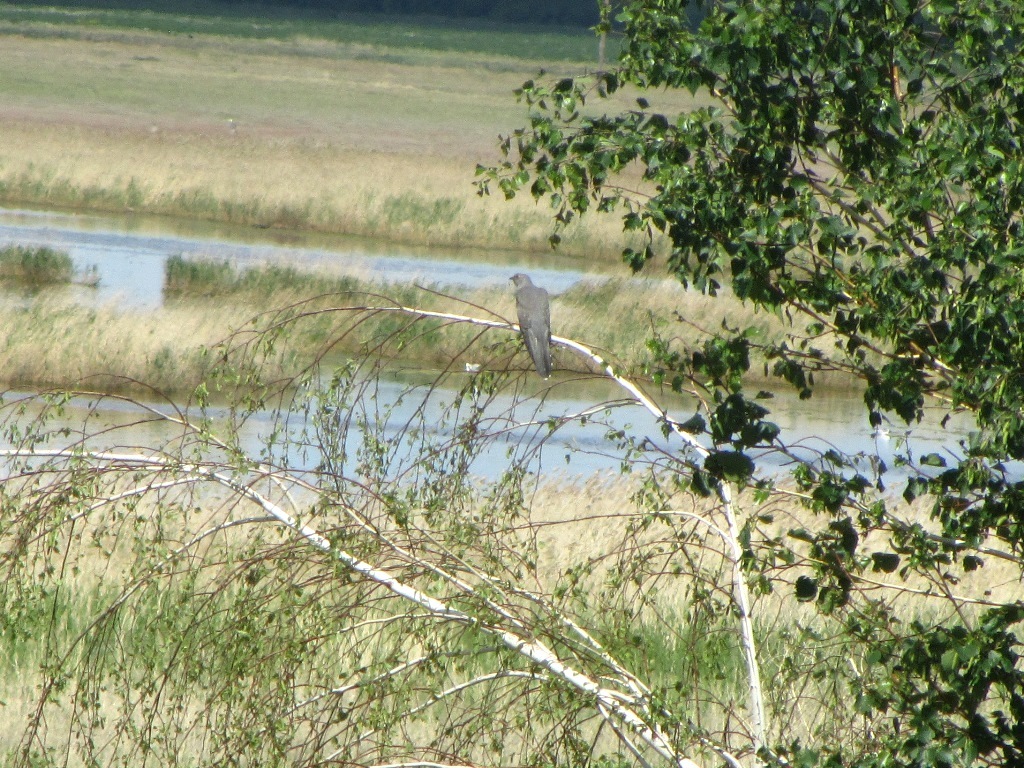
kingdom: Animalia
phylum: Chordata
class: Aves
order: Cuculiformes
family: Cuculidae
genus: Cuculus
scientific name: Cuculus canorus
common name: Common cuckoo
